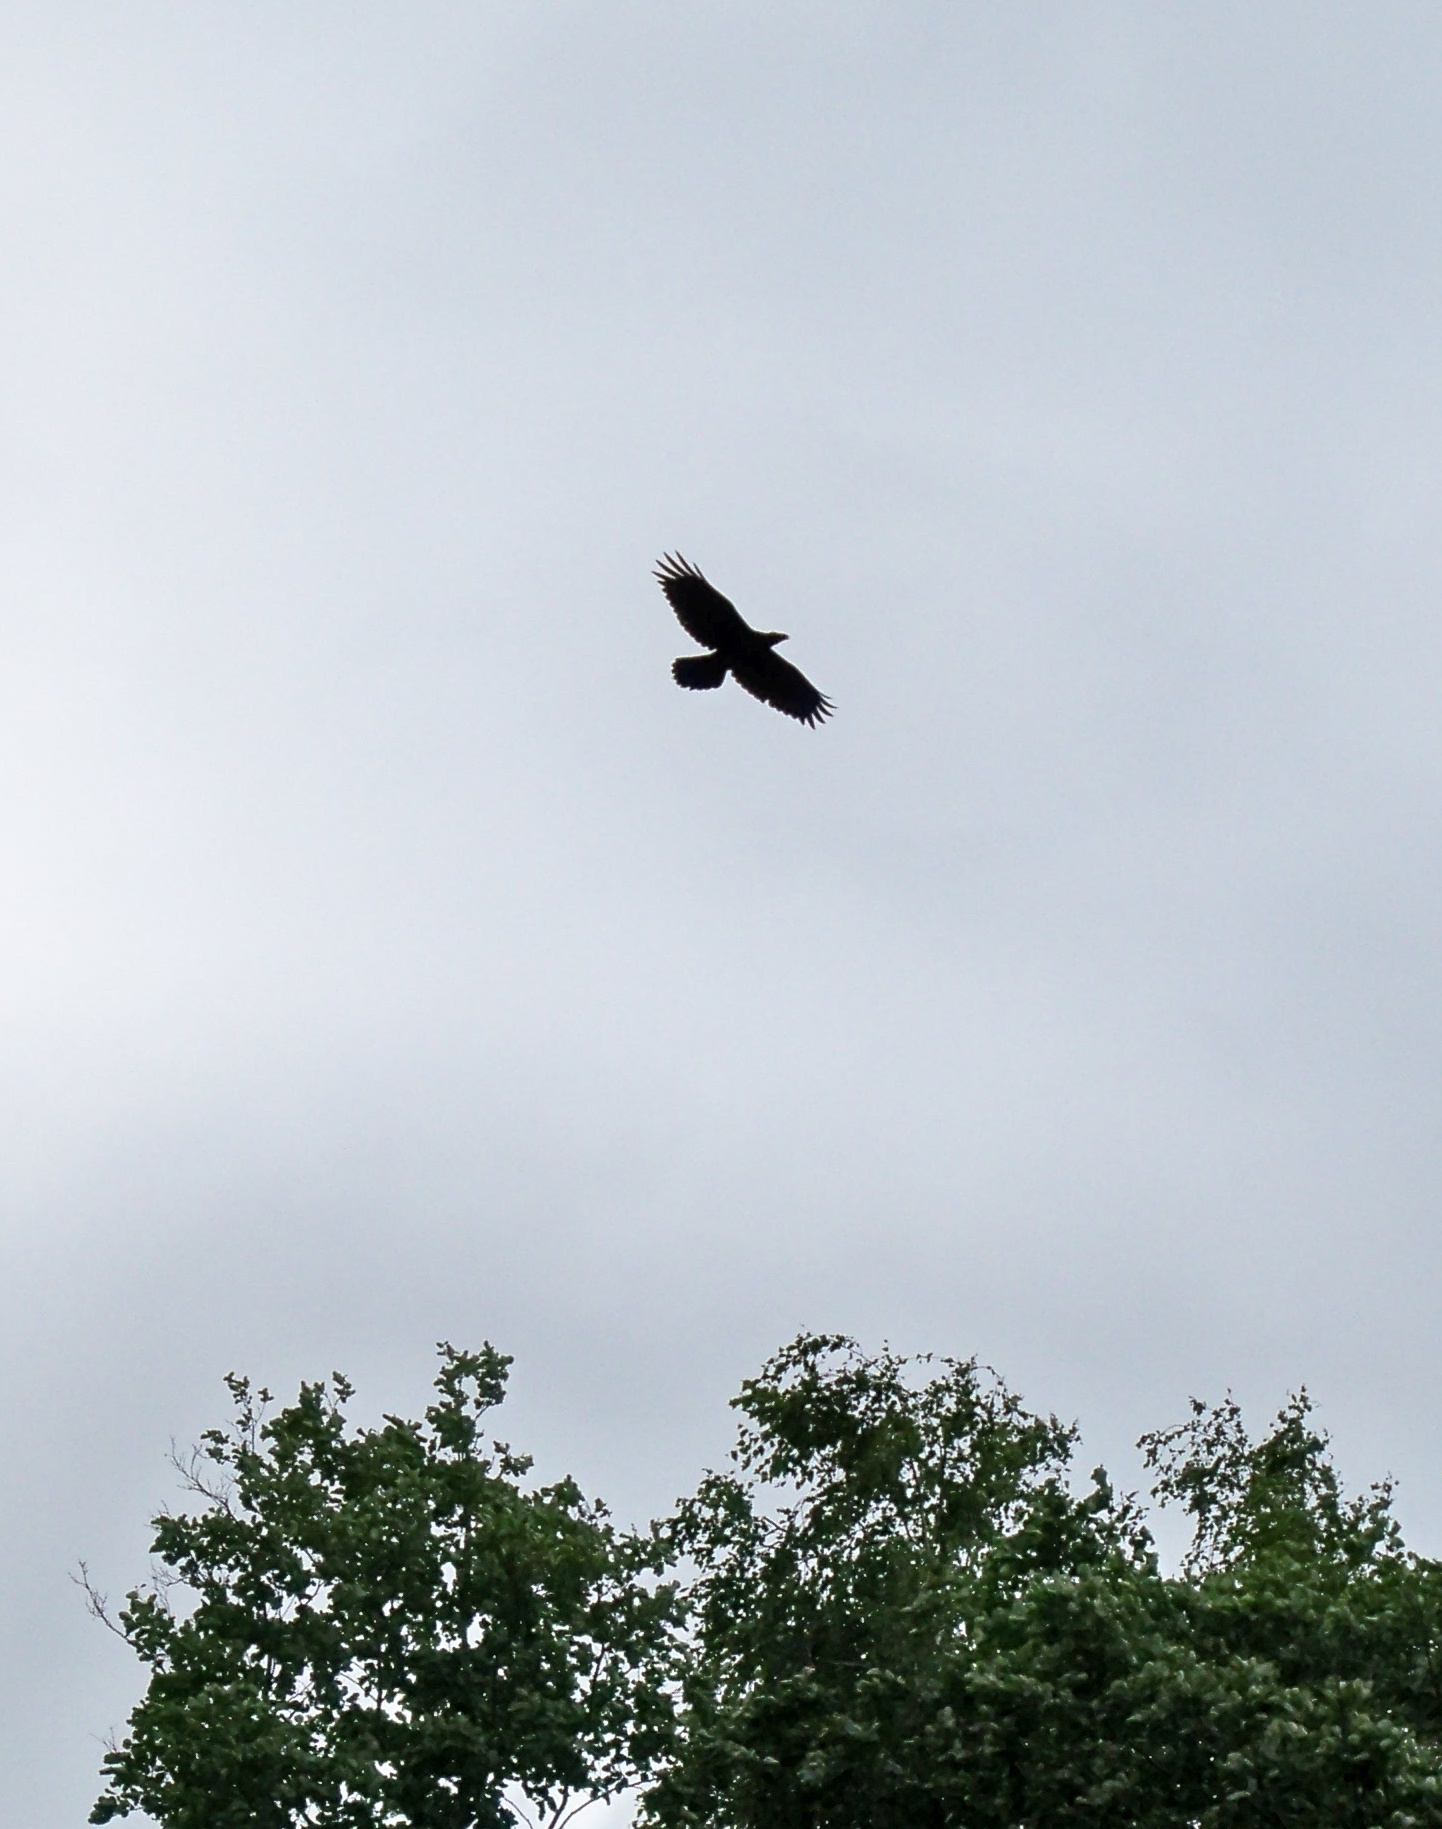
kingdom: Animalia
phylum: Chordata
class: Aves
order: Passeriformes
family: Corvidae
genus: Corvus
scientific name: Corvus corax
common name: Common raven
